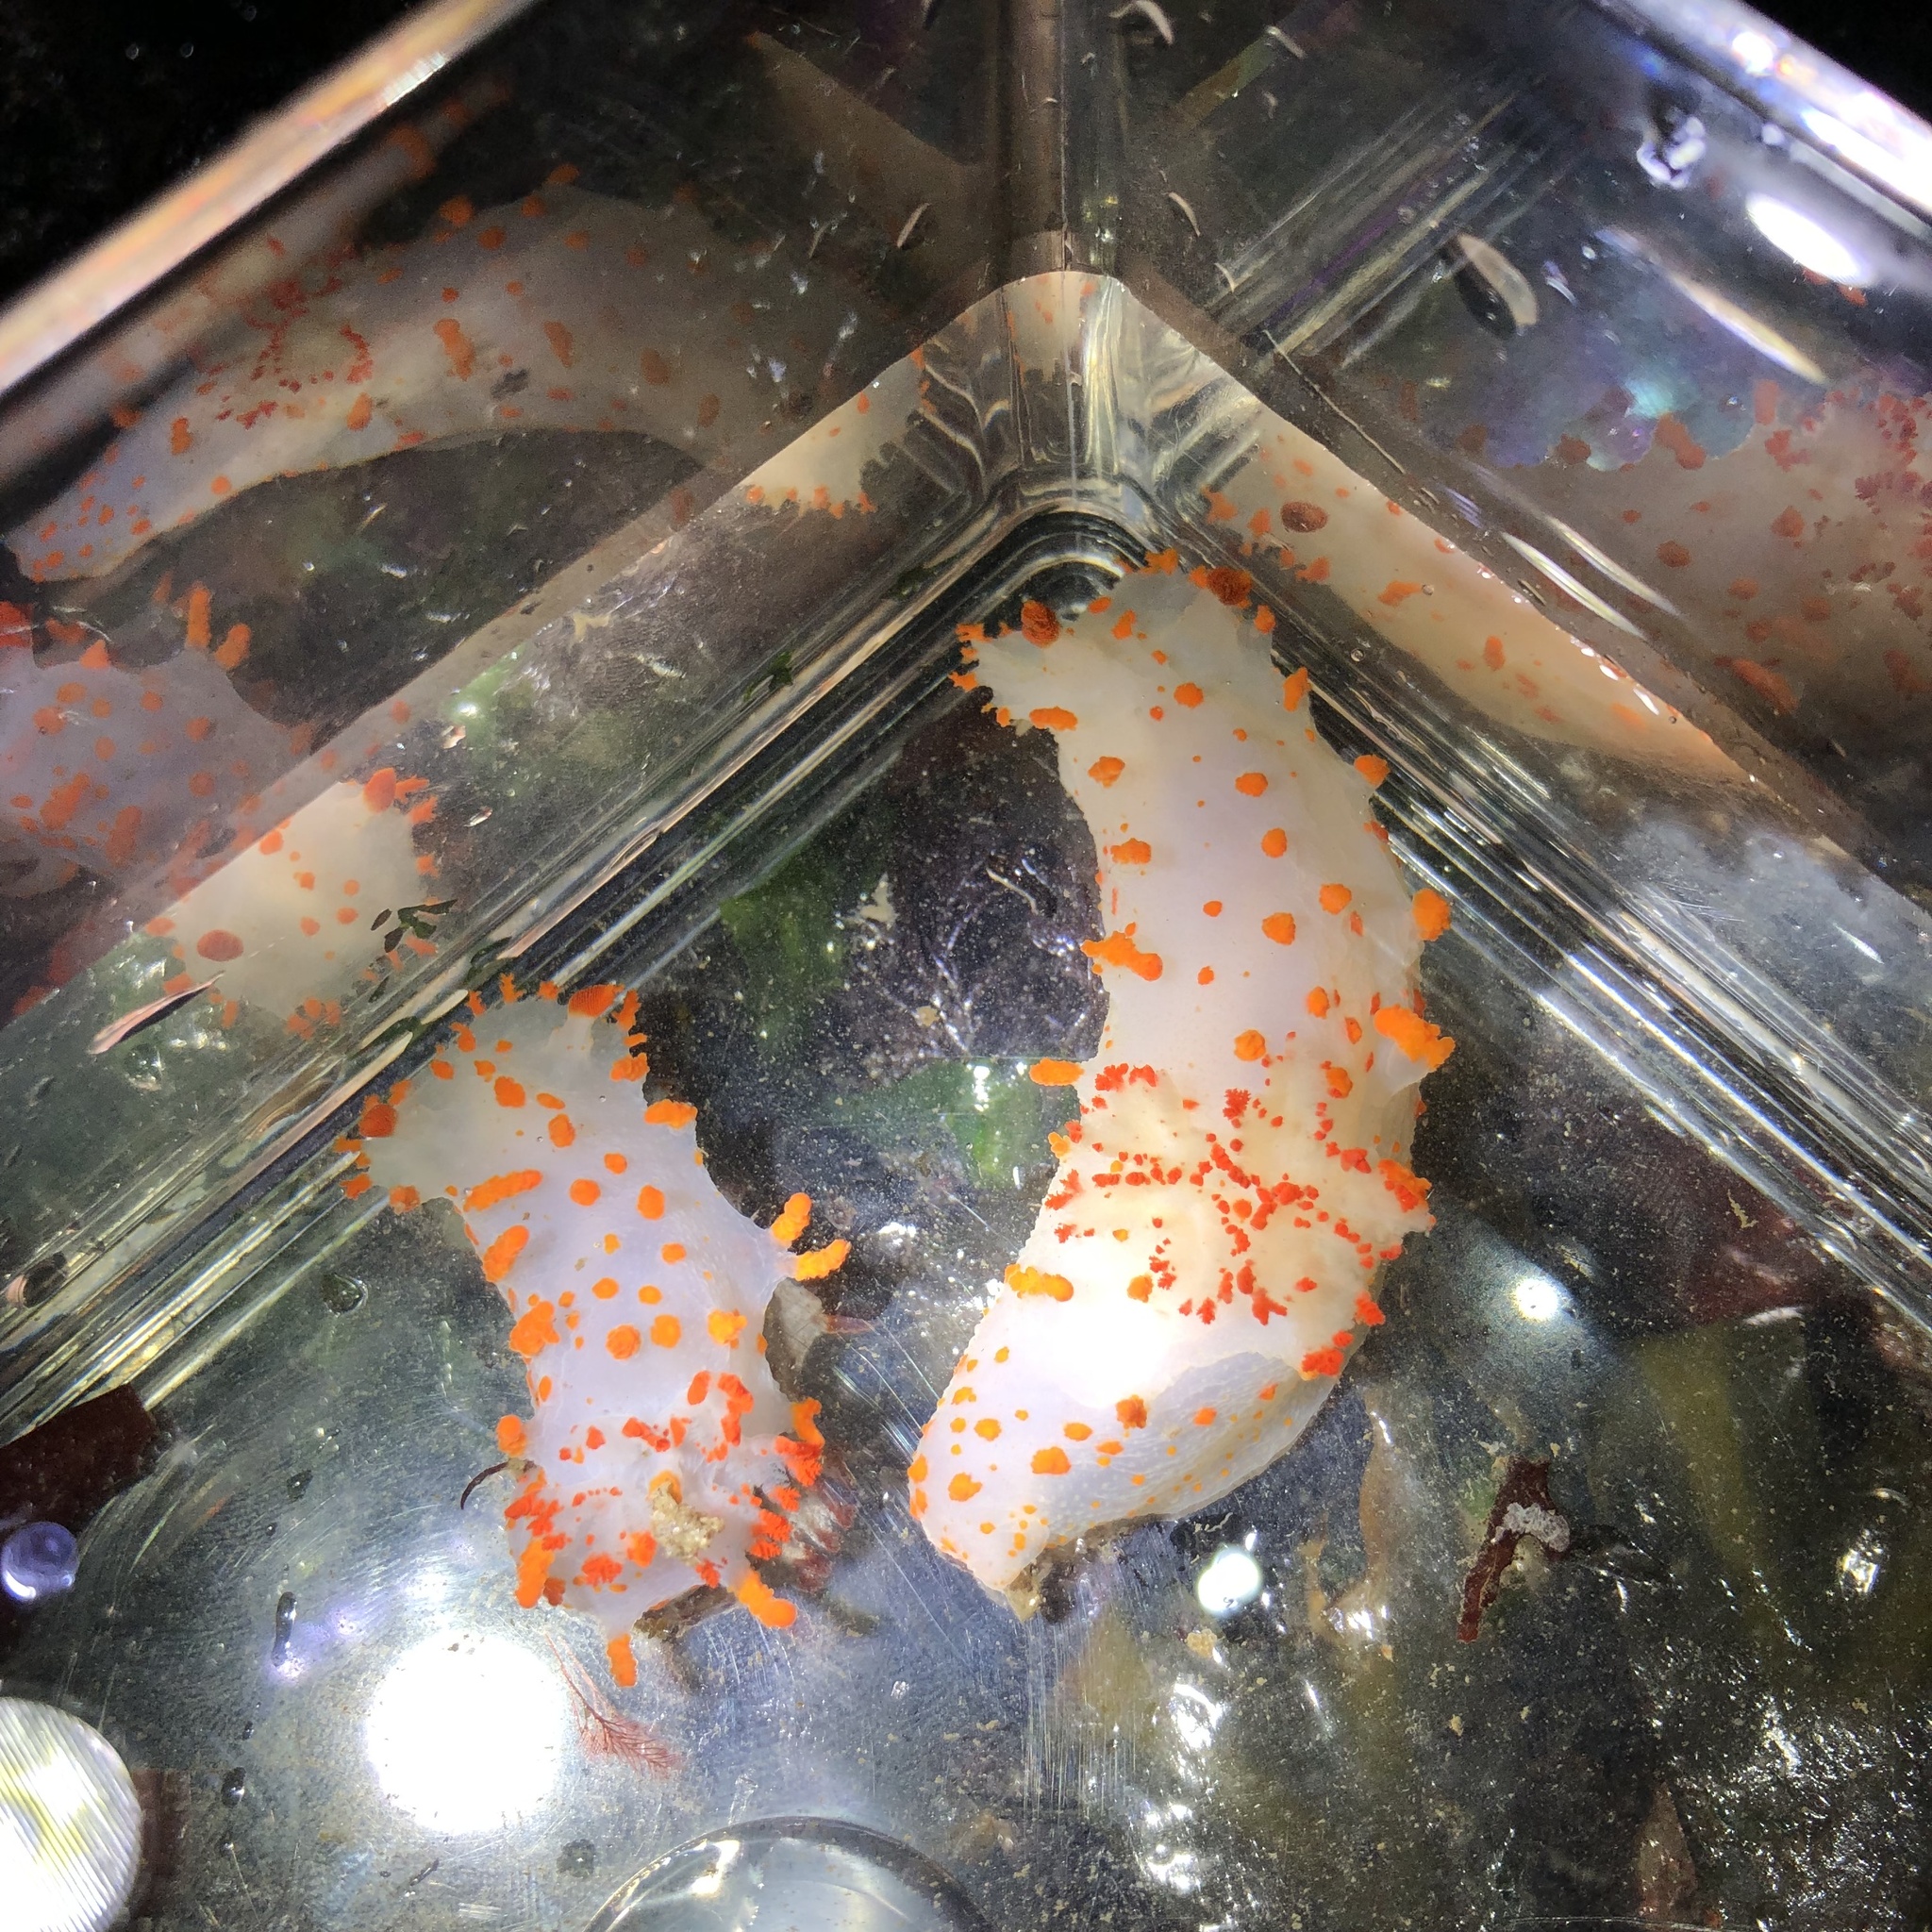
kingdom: Animalia
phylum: Mollusca
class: Gastropoda
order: Nudibranchia
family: Polyceridae
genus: Triopha
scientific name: Triopha catalinae
